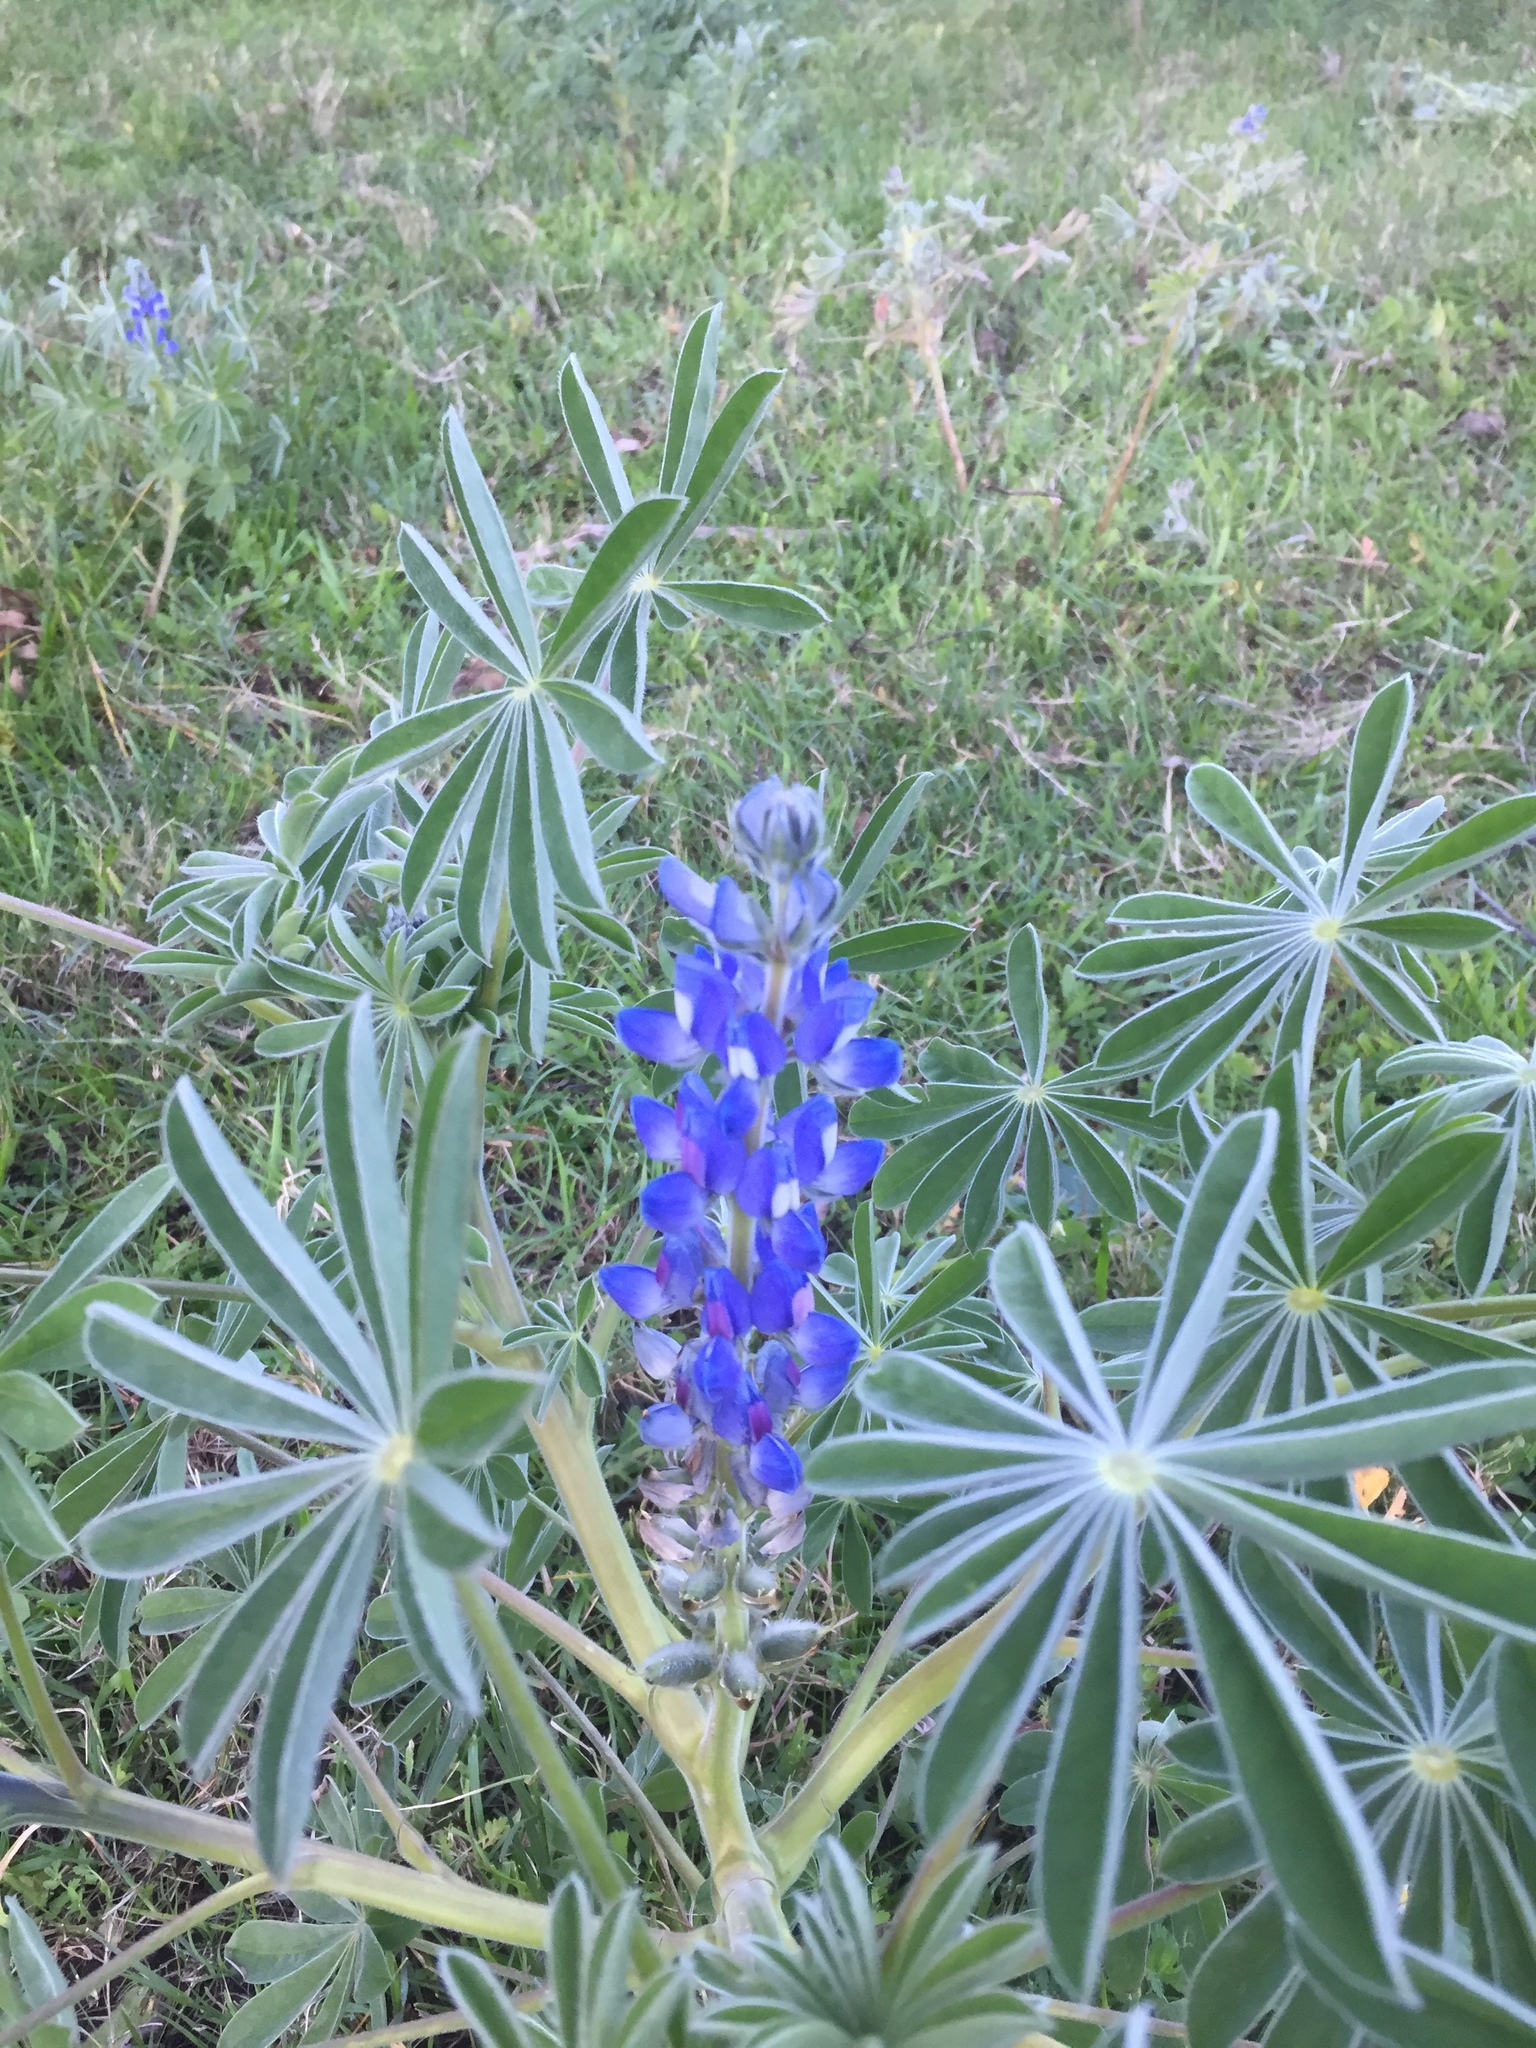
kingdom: Plantae
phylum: Tracheophyta
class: Magnoliopsida
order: Fabales
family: Fabaceae
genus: Lupinus
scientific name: Lupinus cosentinii
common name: Hairy blue lupin
